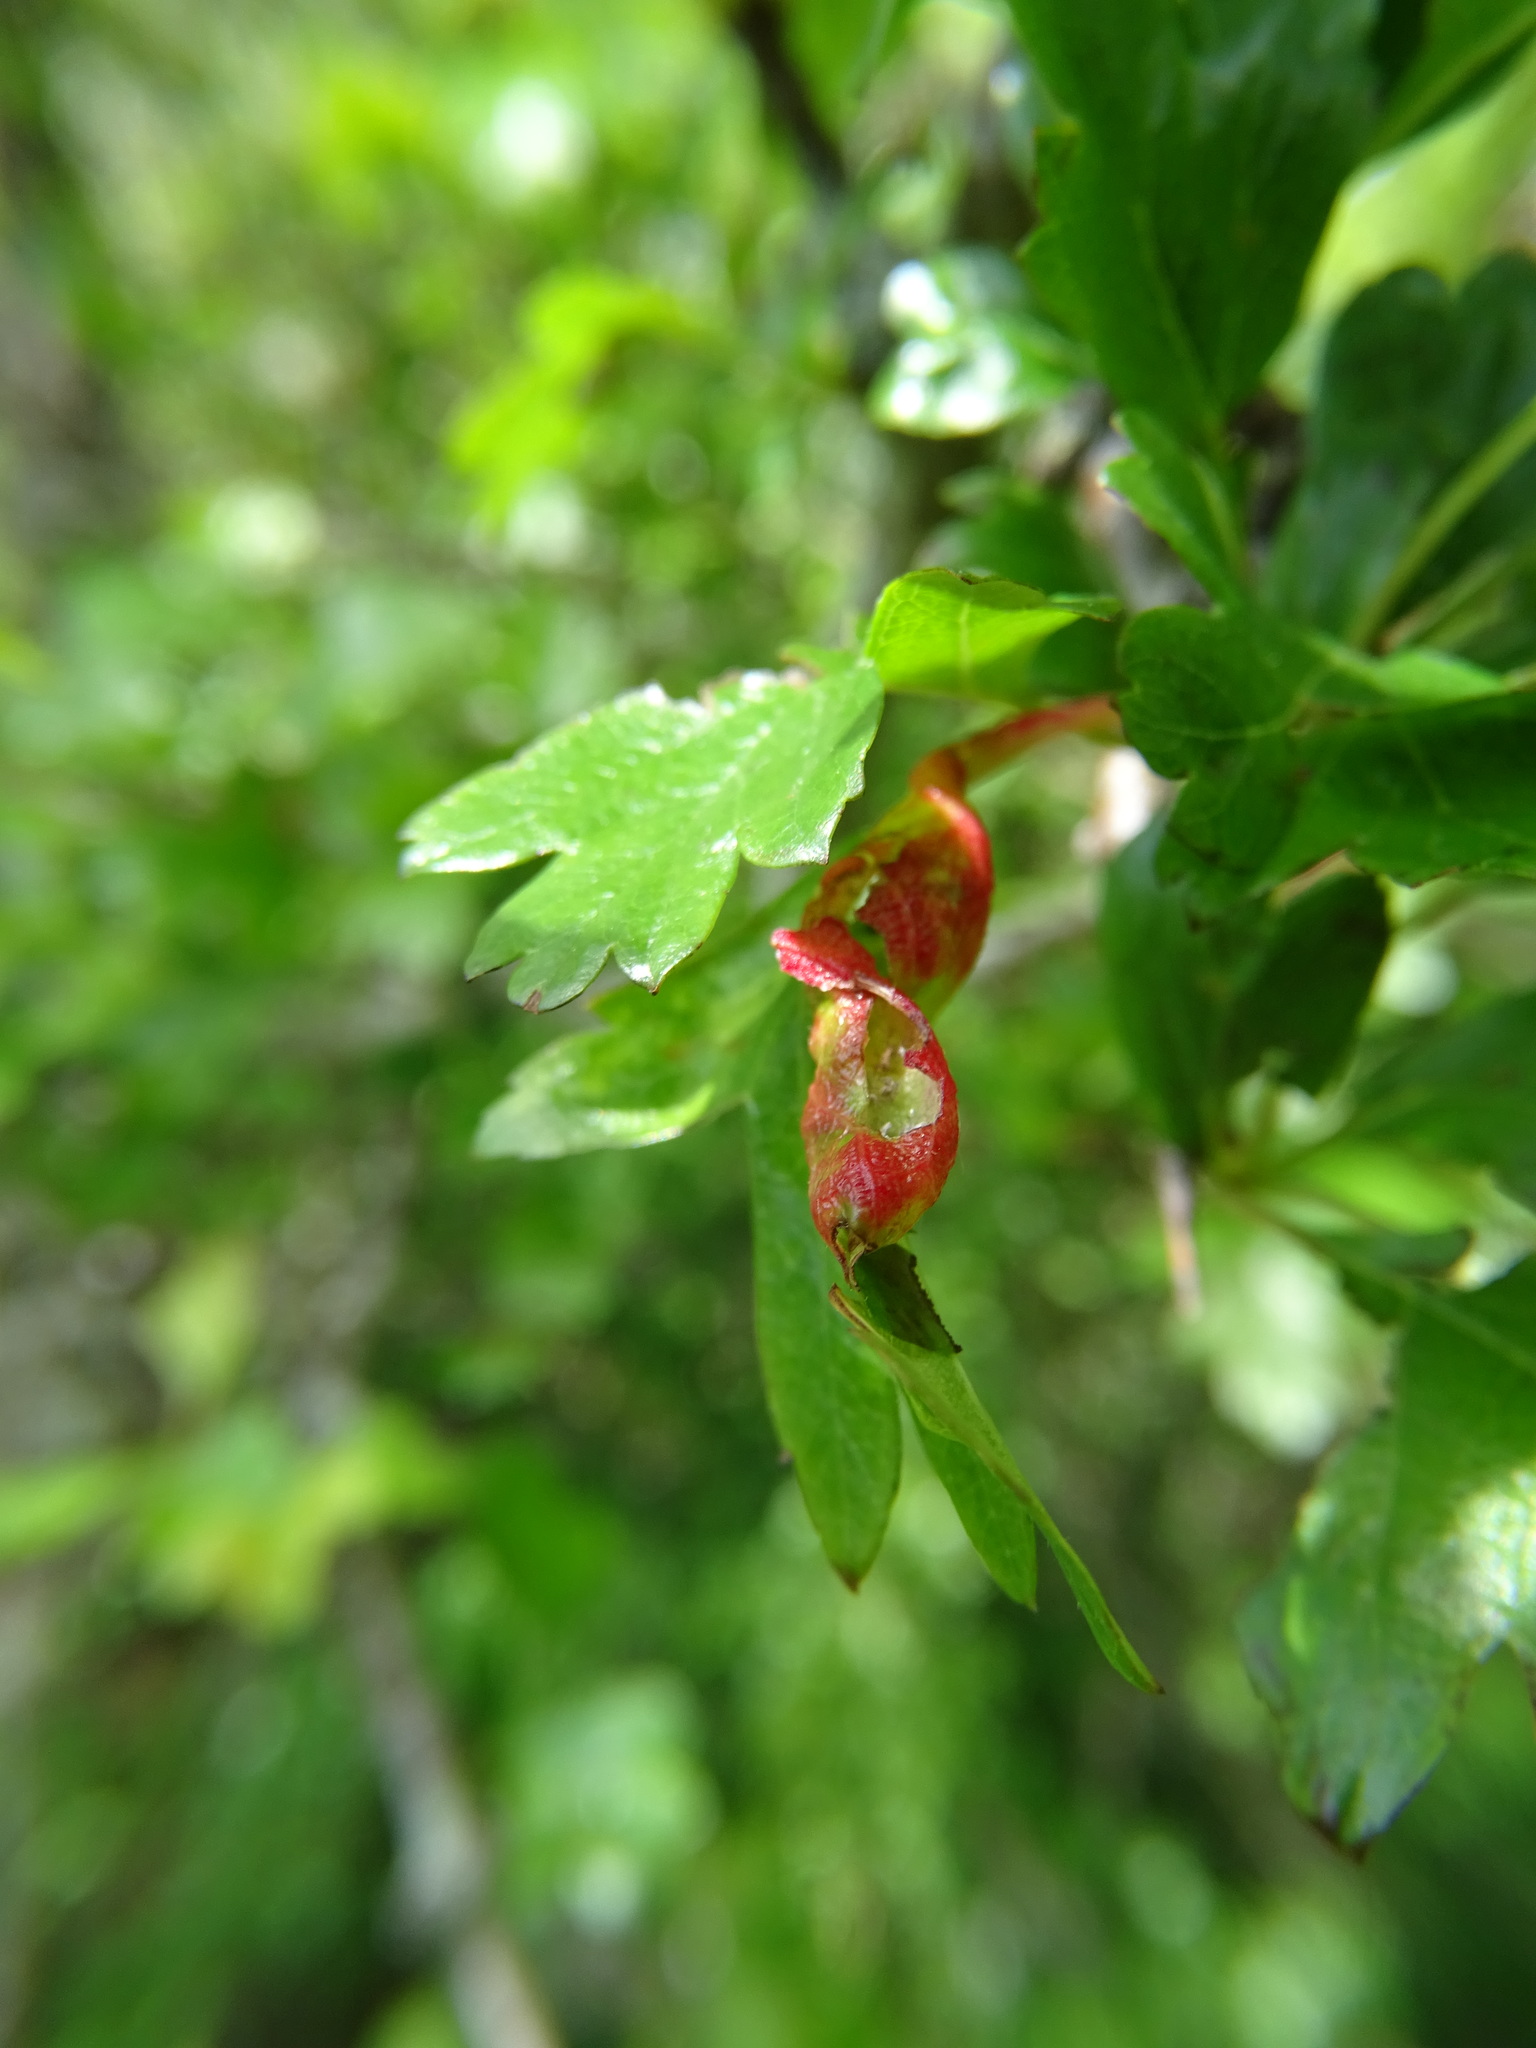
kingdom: Animalia
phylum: Arthropoda
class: Insecta
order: Hemiptera
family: Aphididae
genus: Dysaphis
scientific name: Dysaphis crataegi
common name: Aphid
